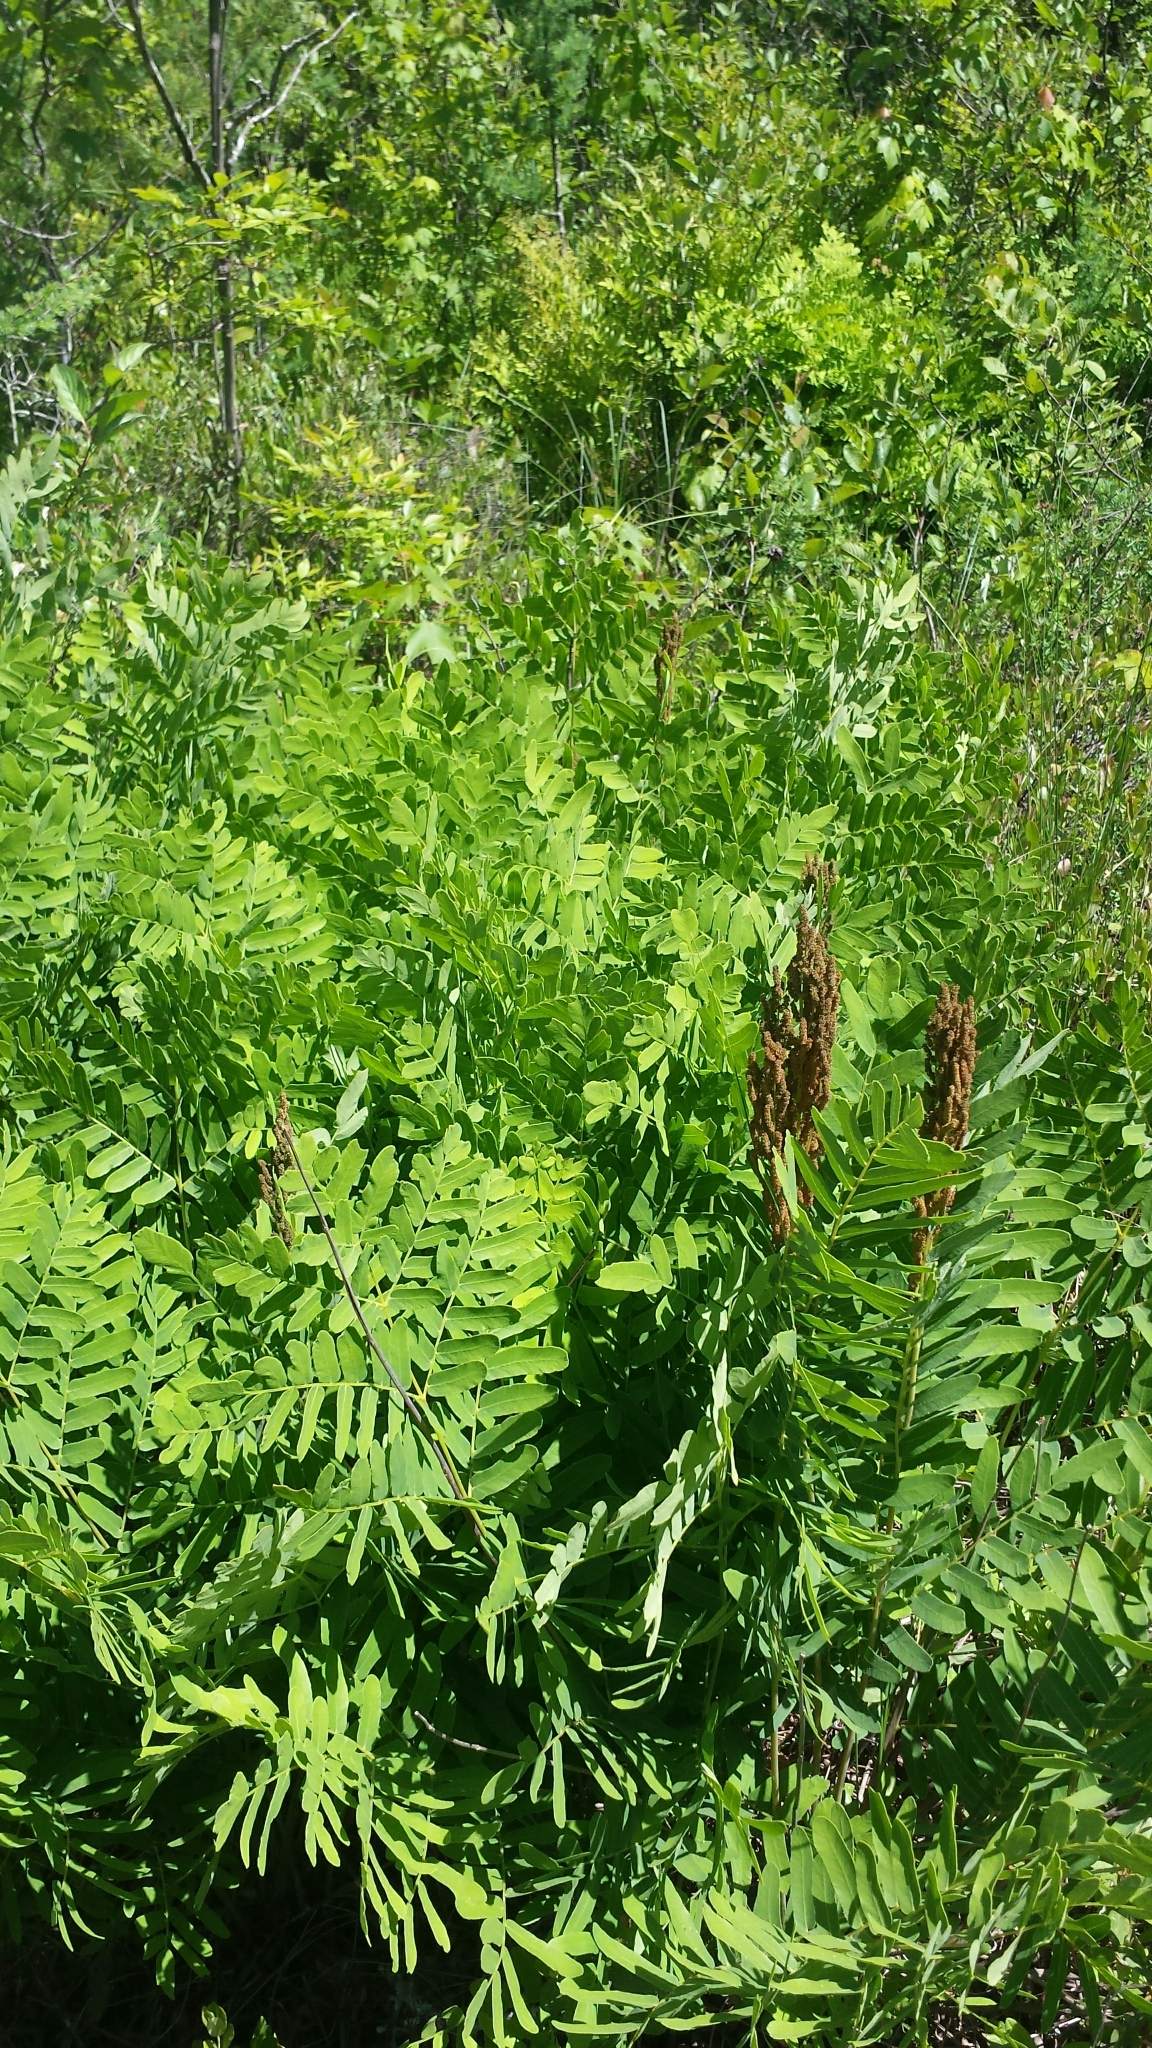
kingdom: Plantae
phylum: Tracheophyta
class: Polypodiopsida
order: Osmundales
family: Osmundaceae
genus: Osmunda
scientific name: Osmunda spectabilis
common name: American royal fern
